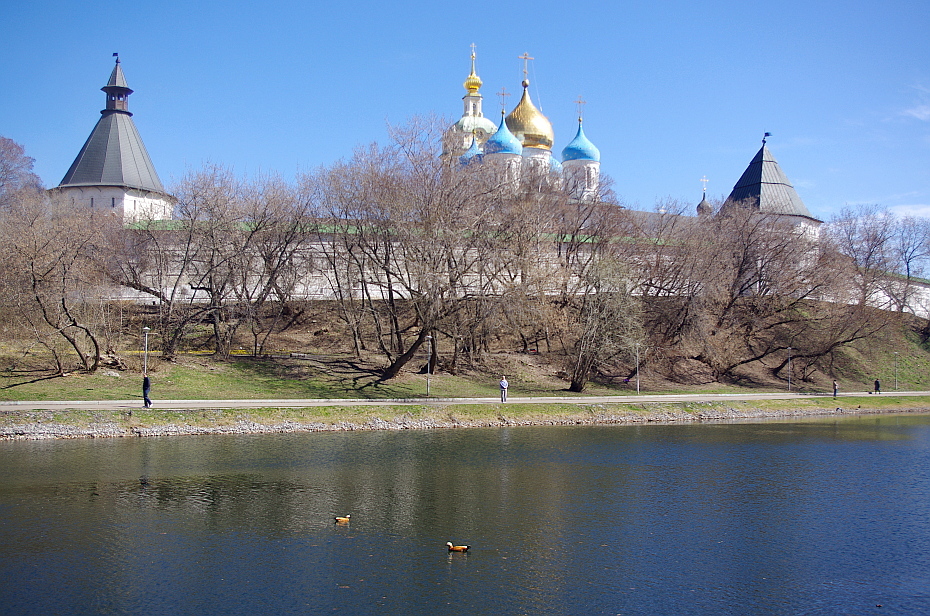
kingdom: Animalia
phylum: Chordata
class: Aves
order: Anseriformes
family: Anatidae
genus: Tadorna
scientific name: Tadorna ferruginea
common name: Ruddy shelduck
